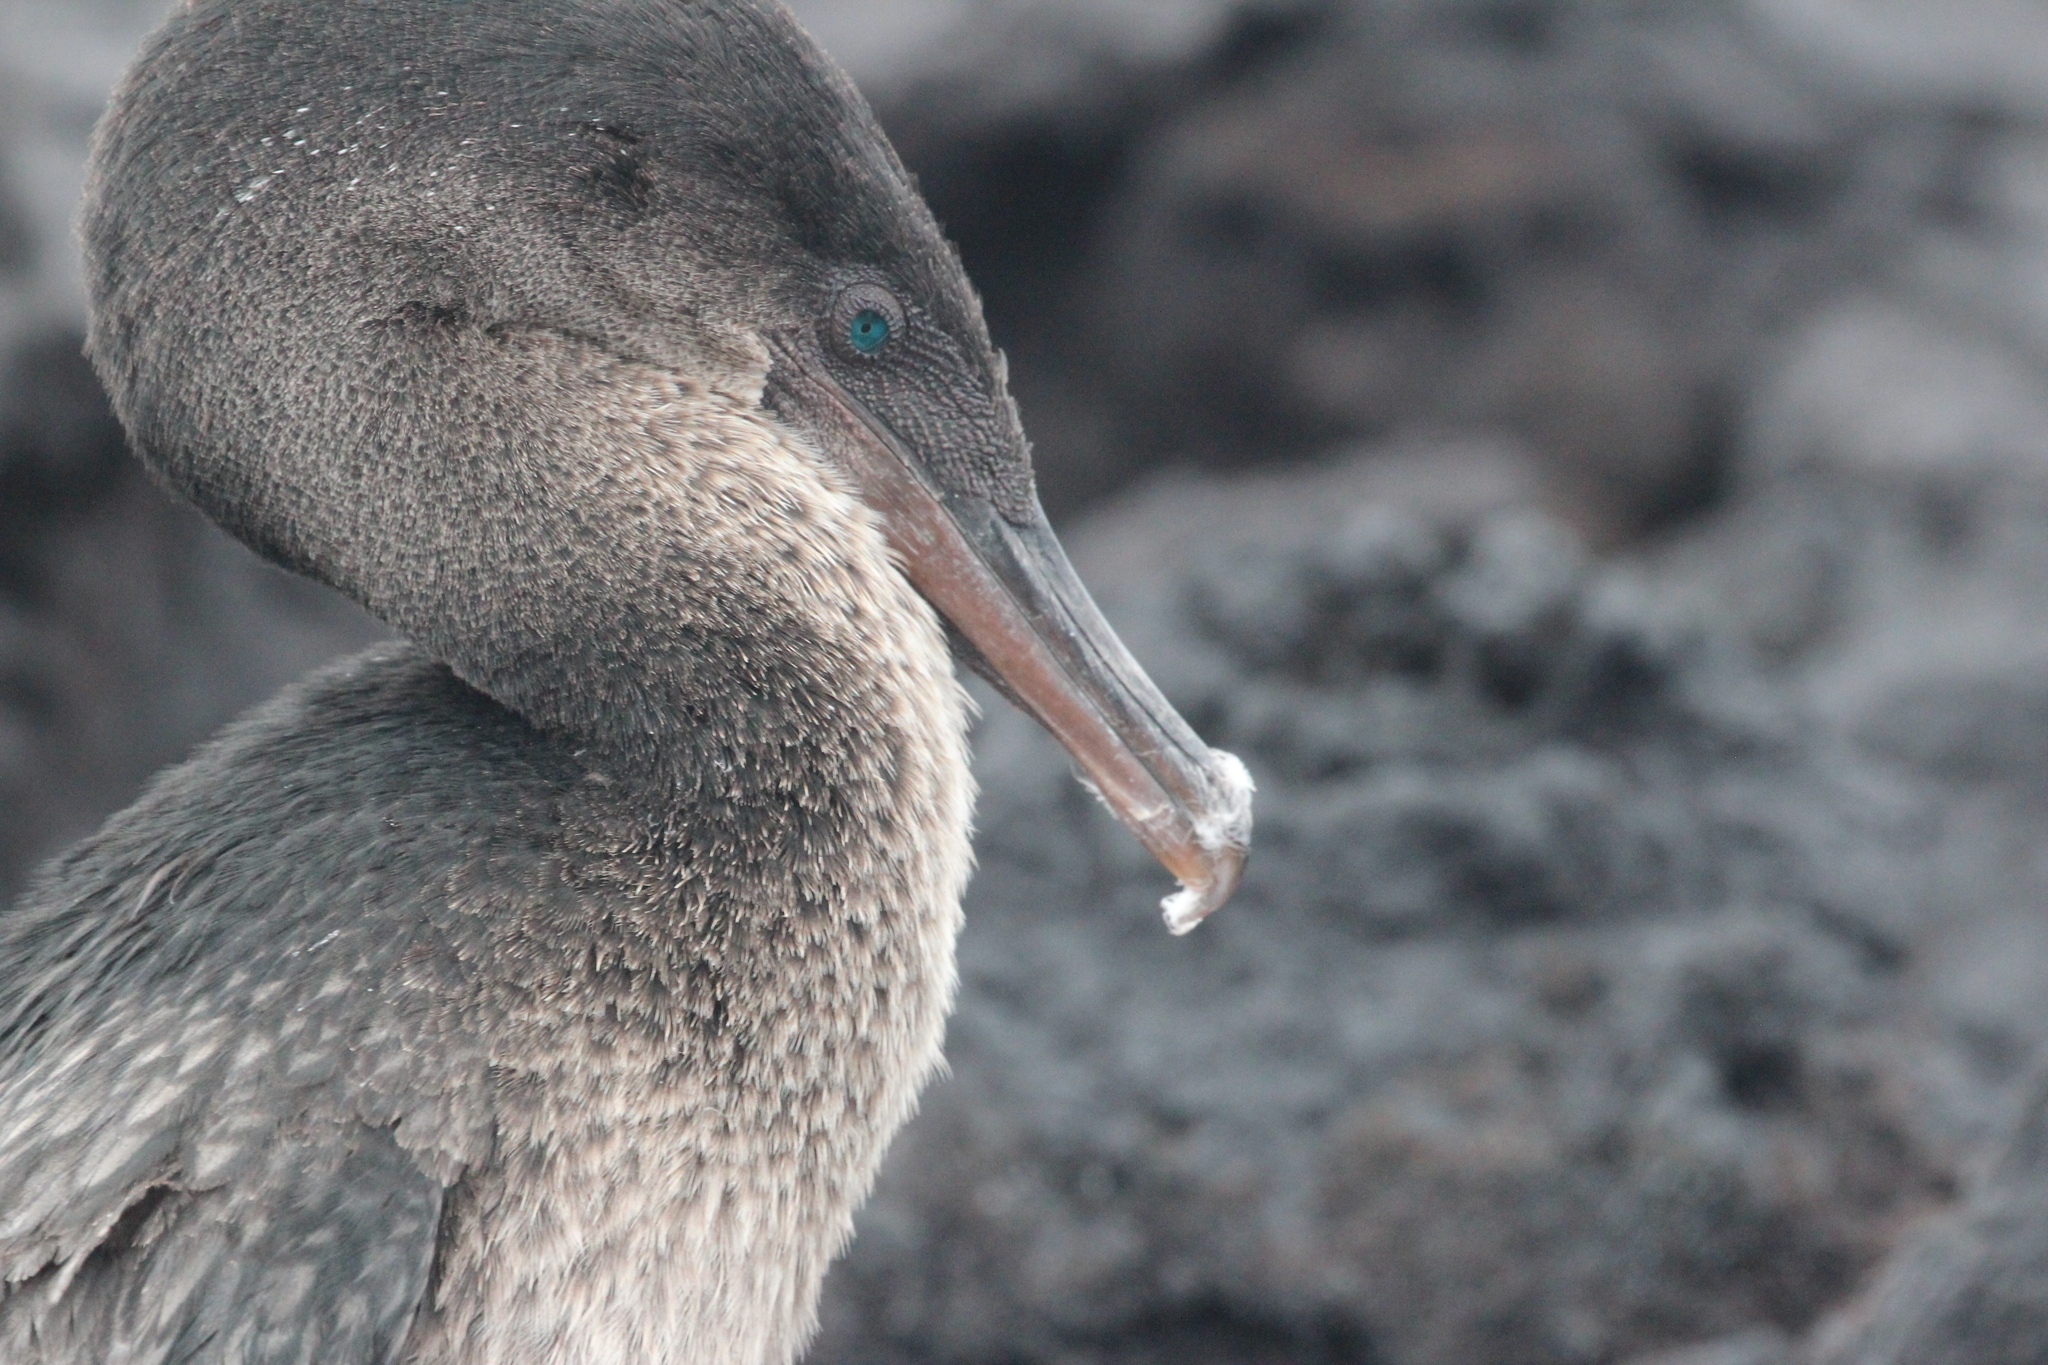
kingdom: Animalia
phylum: Chordata
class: Aves
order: Suliformes
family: Phalacrocoracidae
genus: Phalacrocorax
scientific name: Phalacrocorax harrisi
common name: Flightless cormorant
